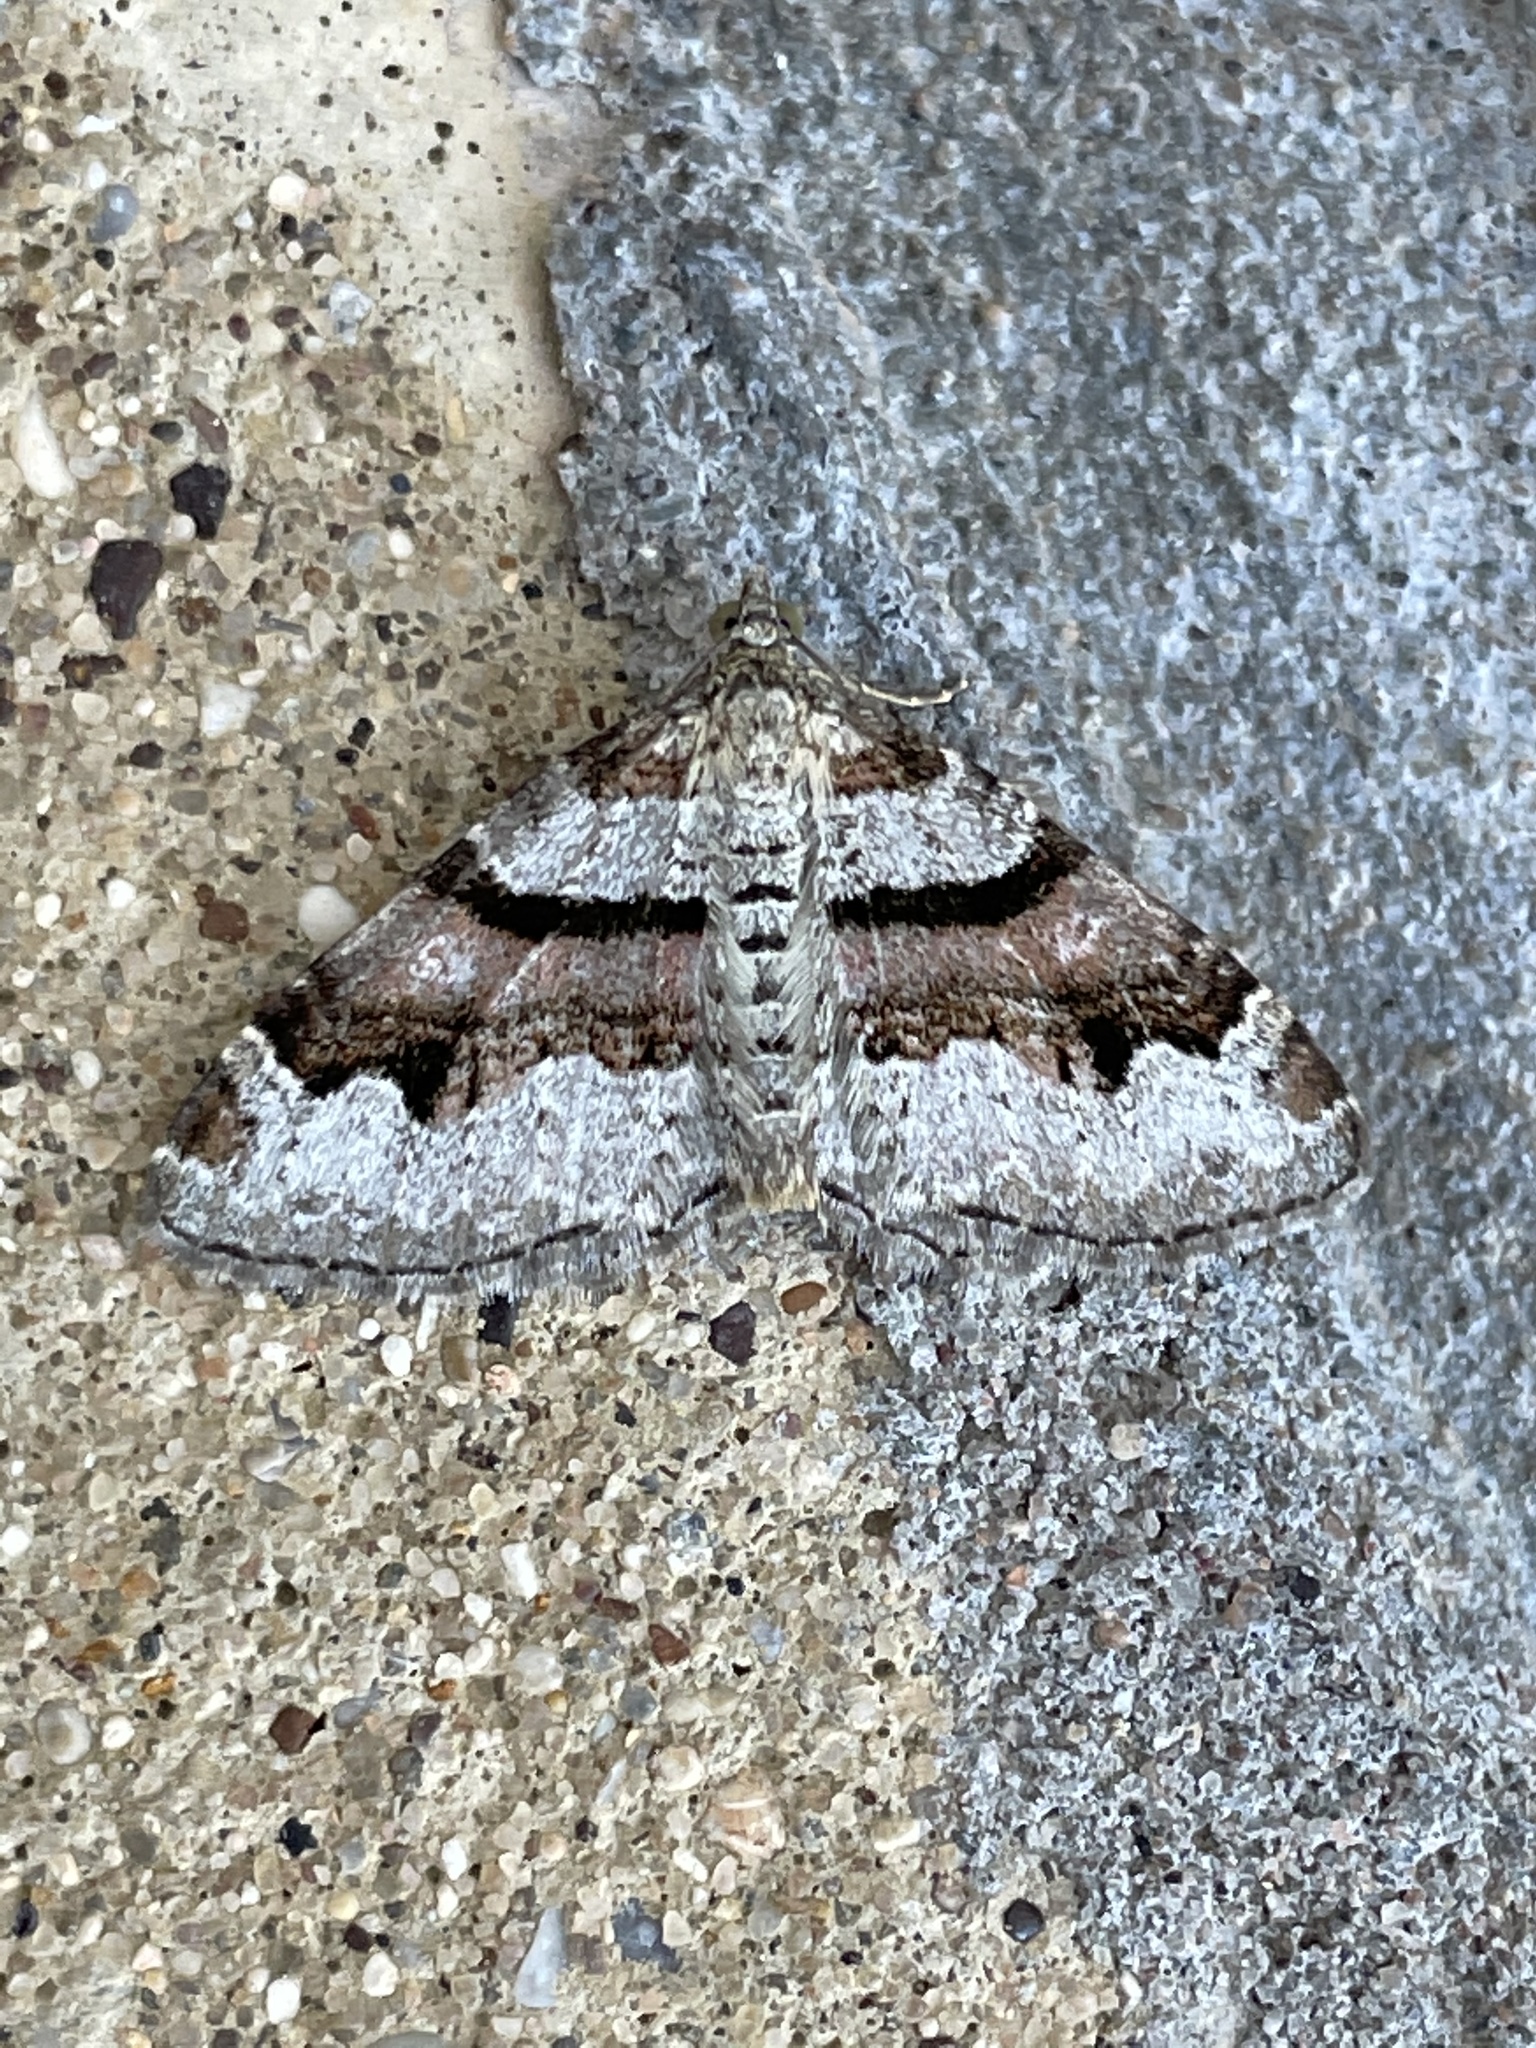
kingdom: Animalia
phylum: Arthropoda
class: Insecta
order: Lepidoptera
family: Geometridae
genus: Xanthorhoe
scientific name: Xanthorhoe designata
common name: Flame carpet
